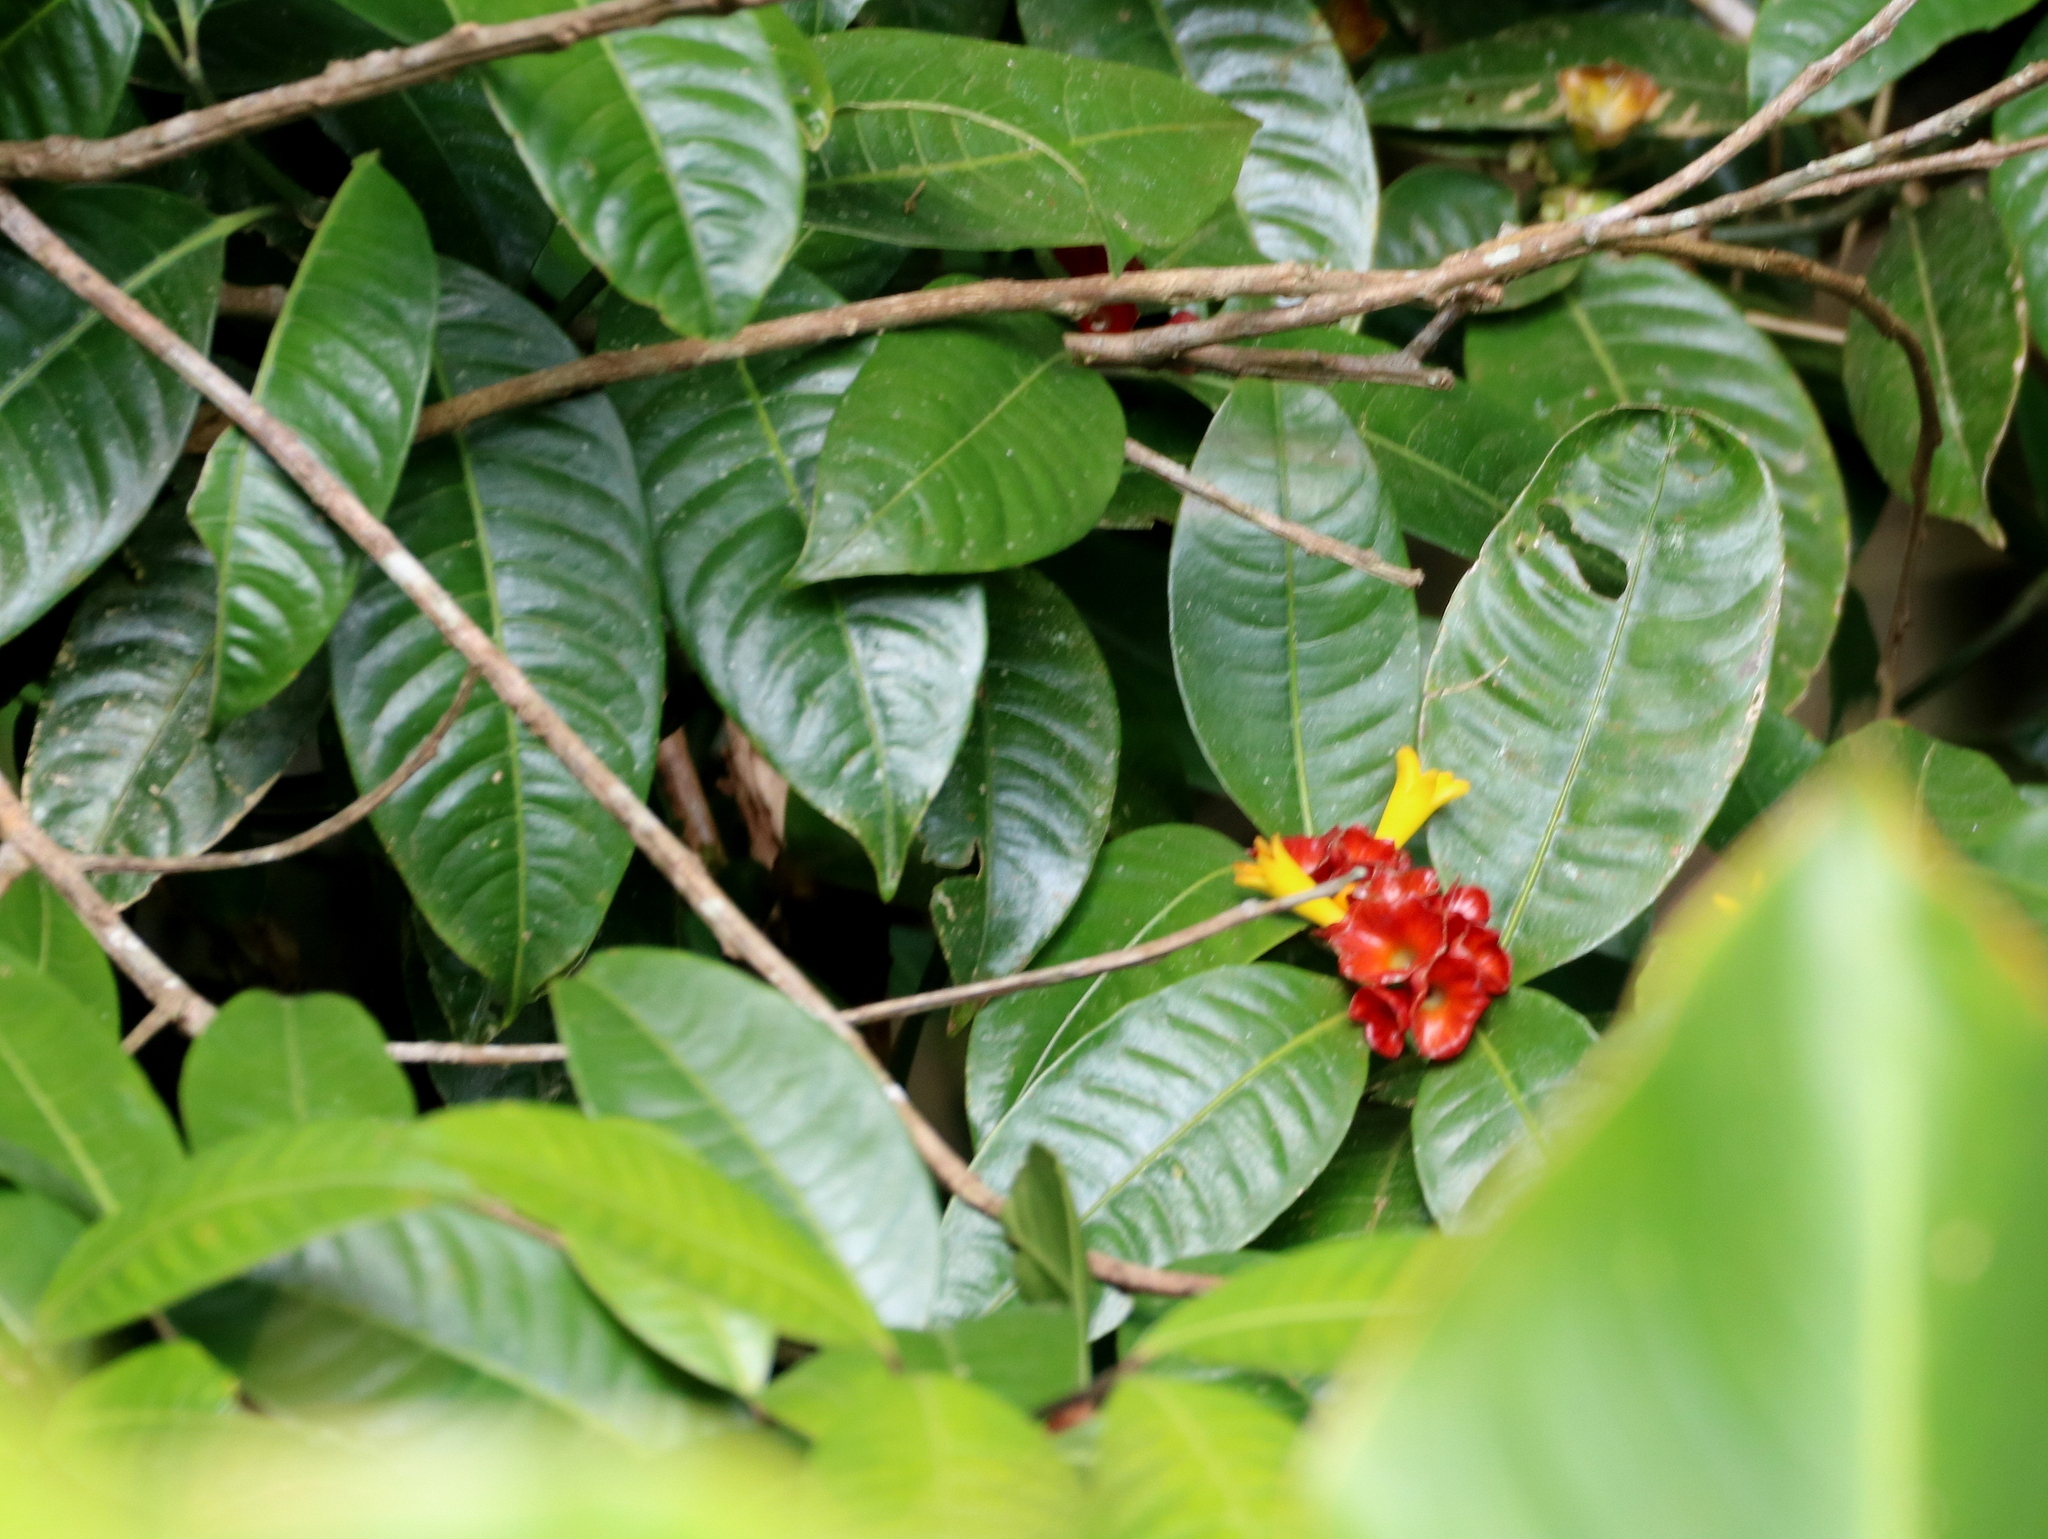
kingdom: Plantae
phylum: Tracheophyta
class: Magnoliopsida
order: Gentianales
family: Rubiaceae
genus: Psychotria
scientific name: Psychotria nuda
